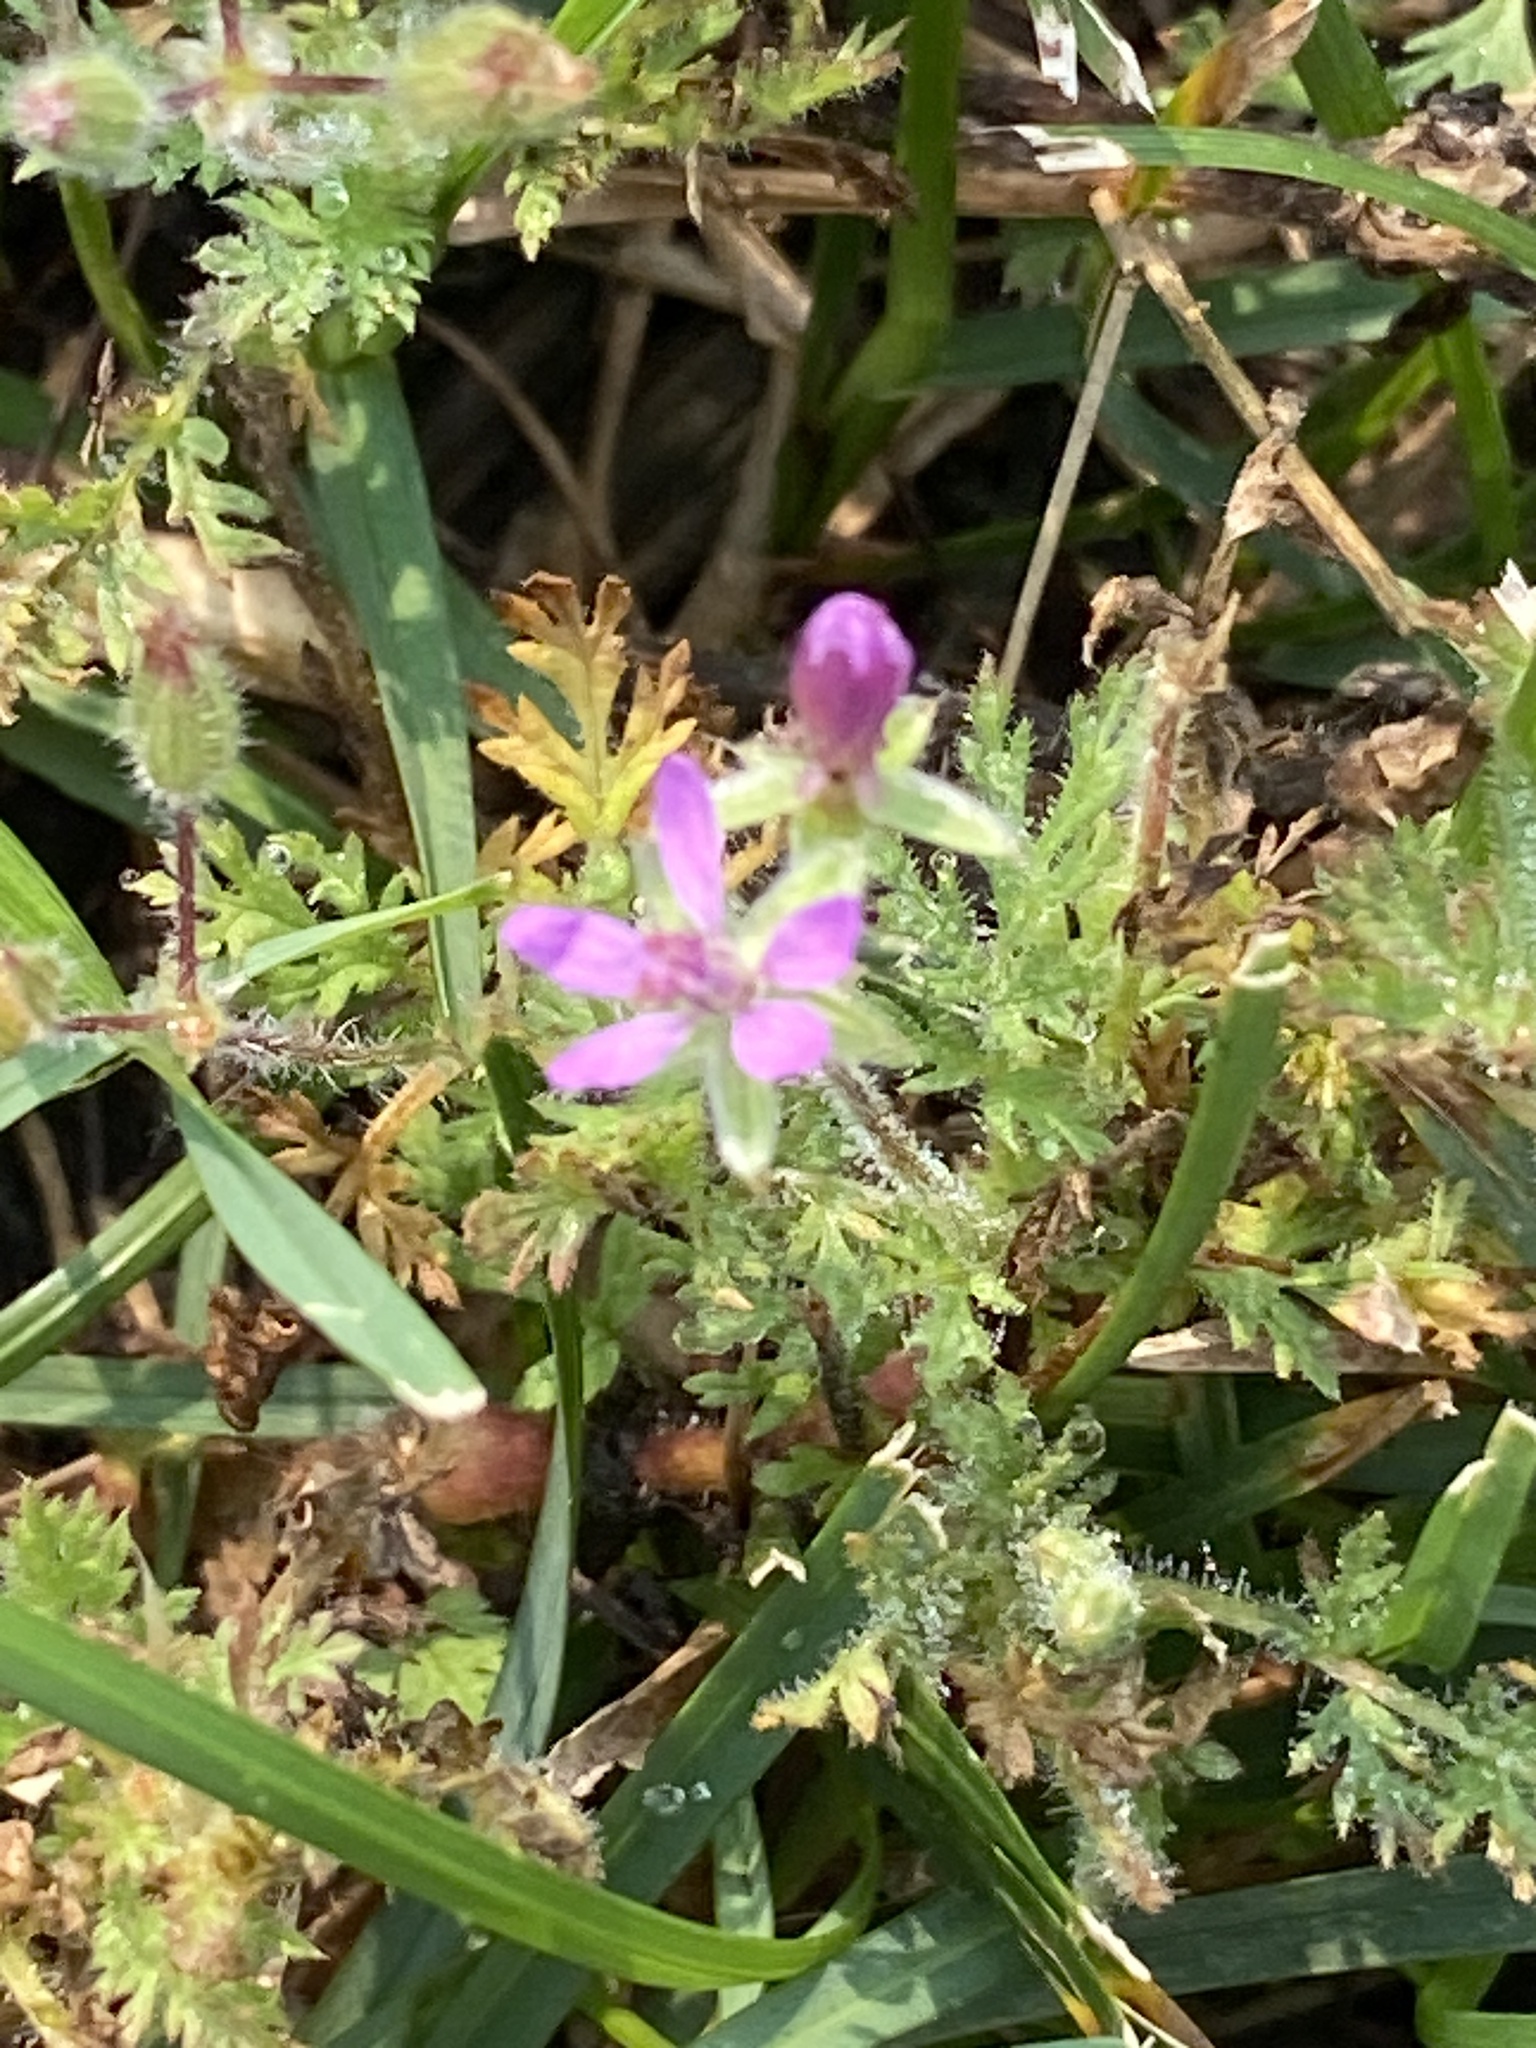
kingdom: Plantae
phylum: Tracheophyta
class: Magnoliopsida
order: Geraniales
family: Geraniaceae
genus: Erodium
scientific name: Erodium cicutarium
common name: Common stork's-bill
